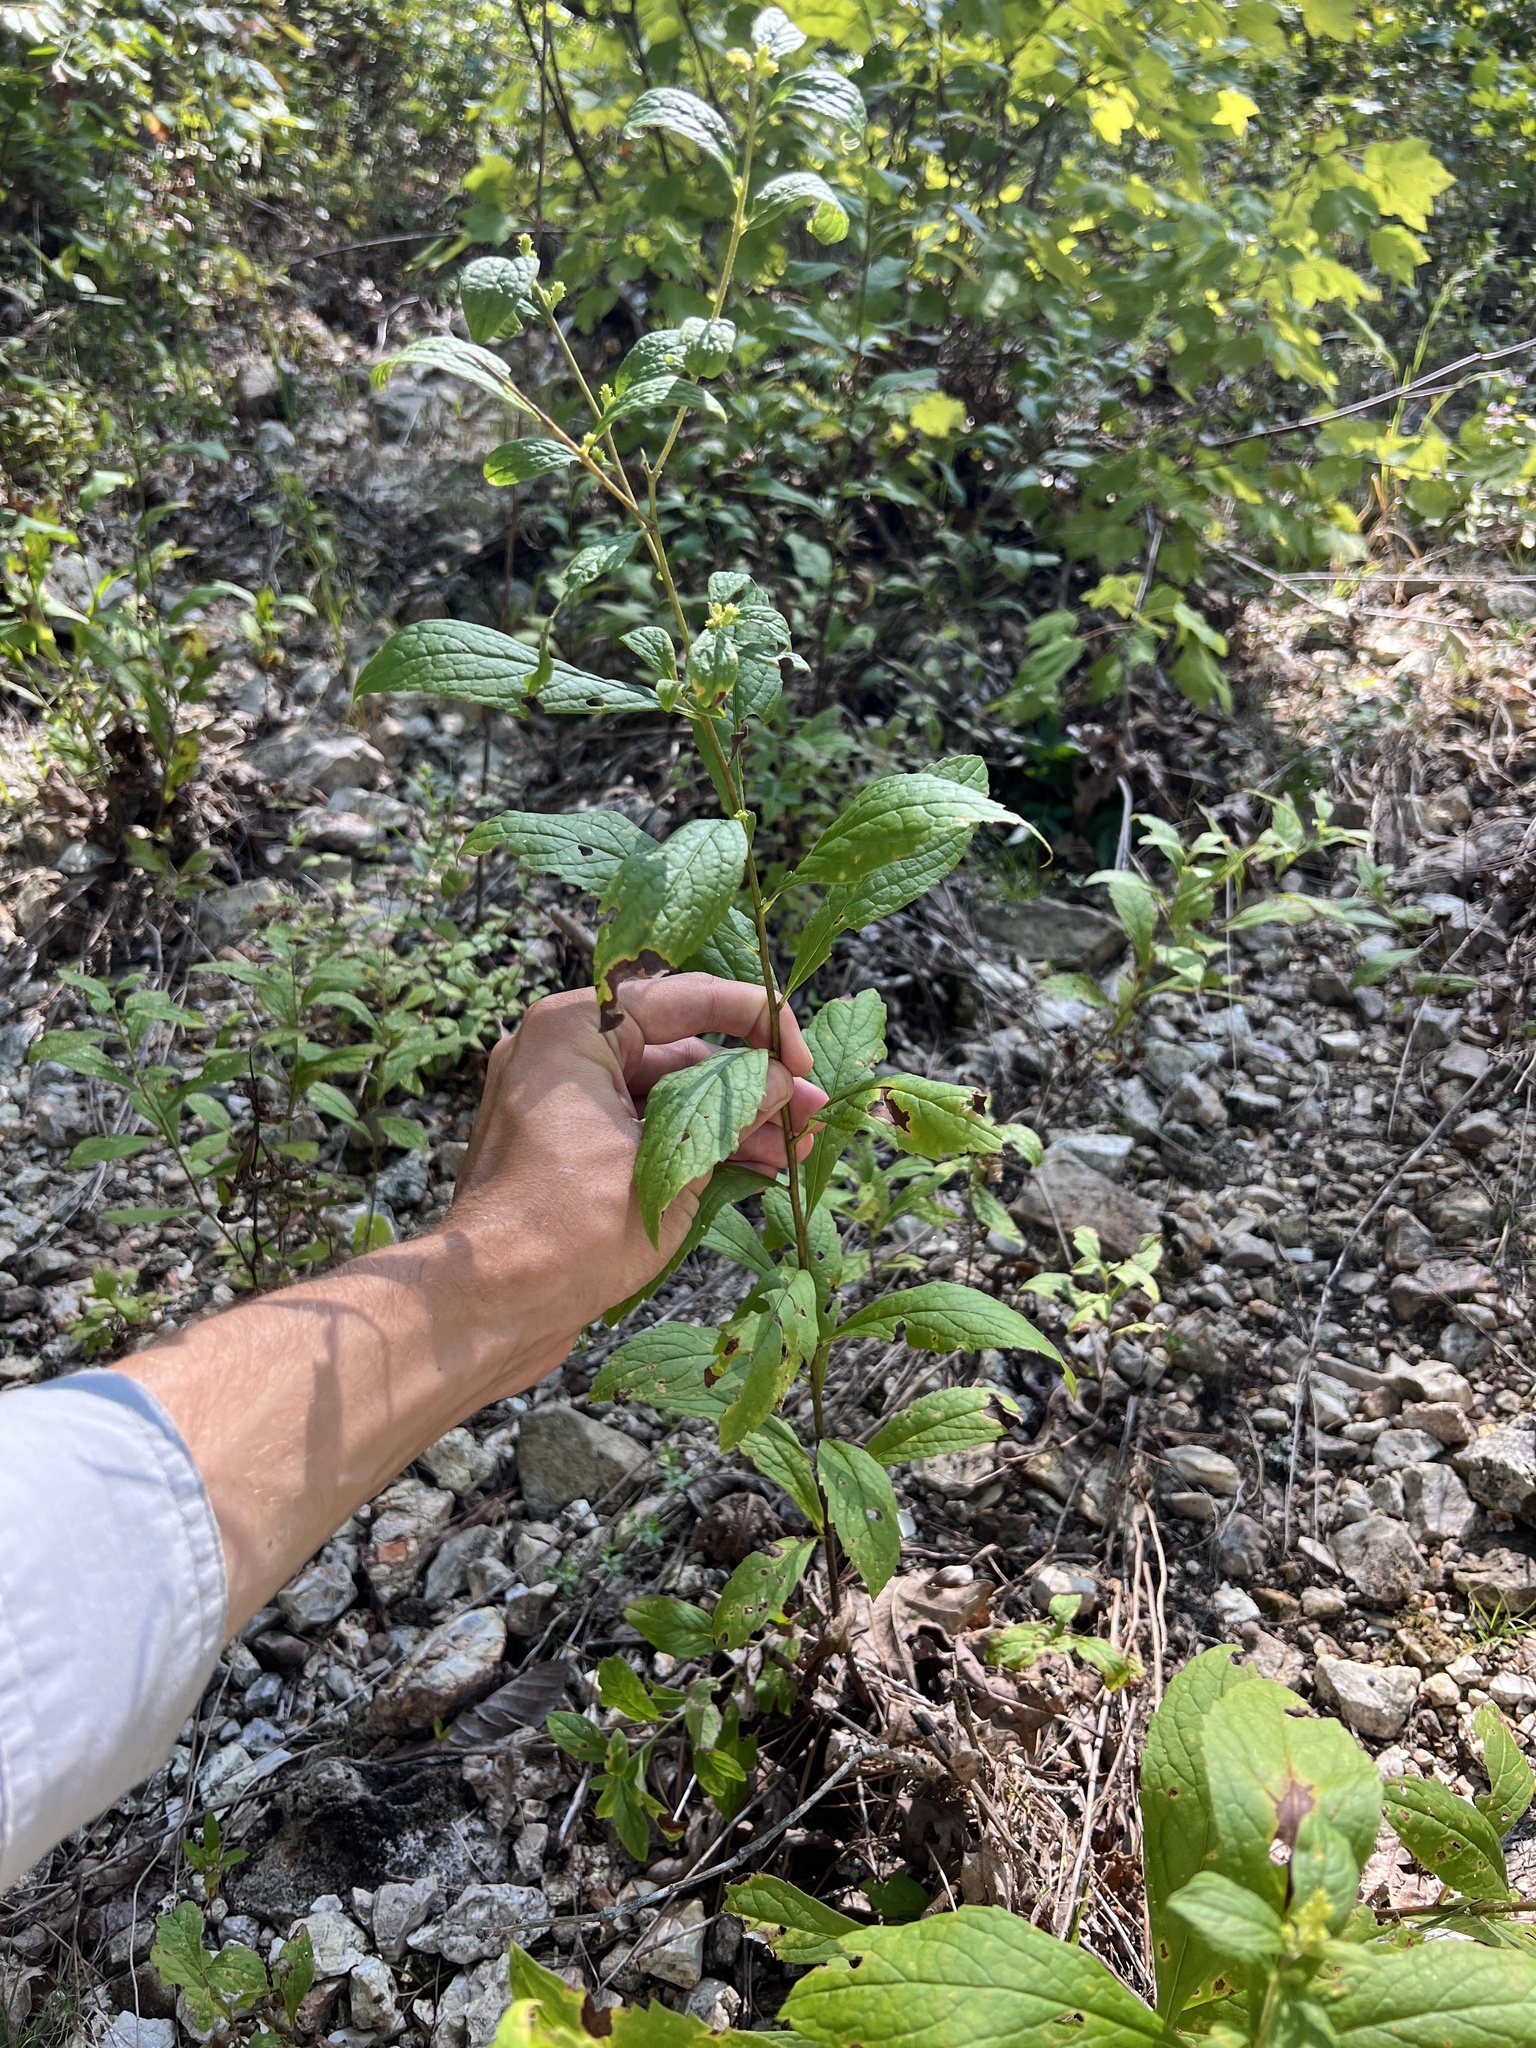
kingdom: Plantae
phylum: Tracheophyta
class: Magnoliopsida
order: Asterales
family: Asteraceae
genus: Solidago
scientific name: Solidago buckleyi
